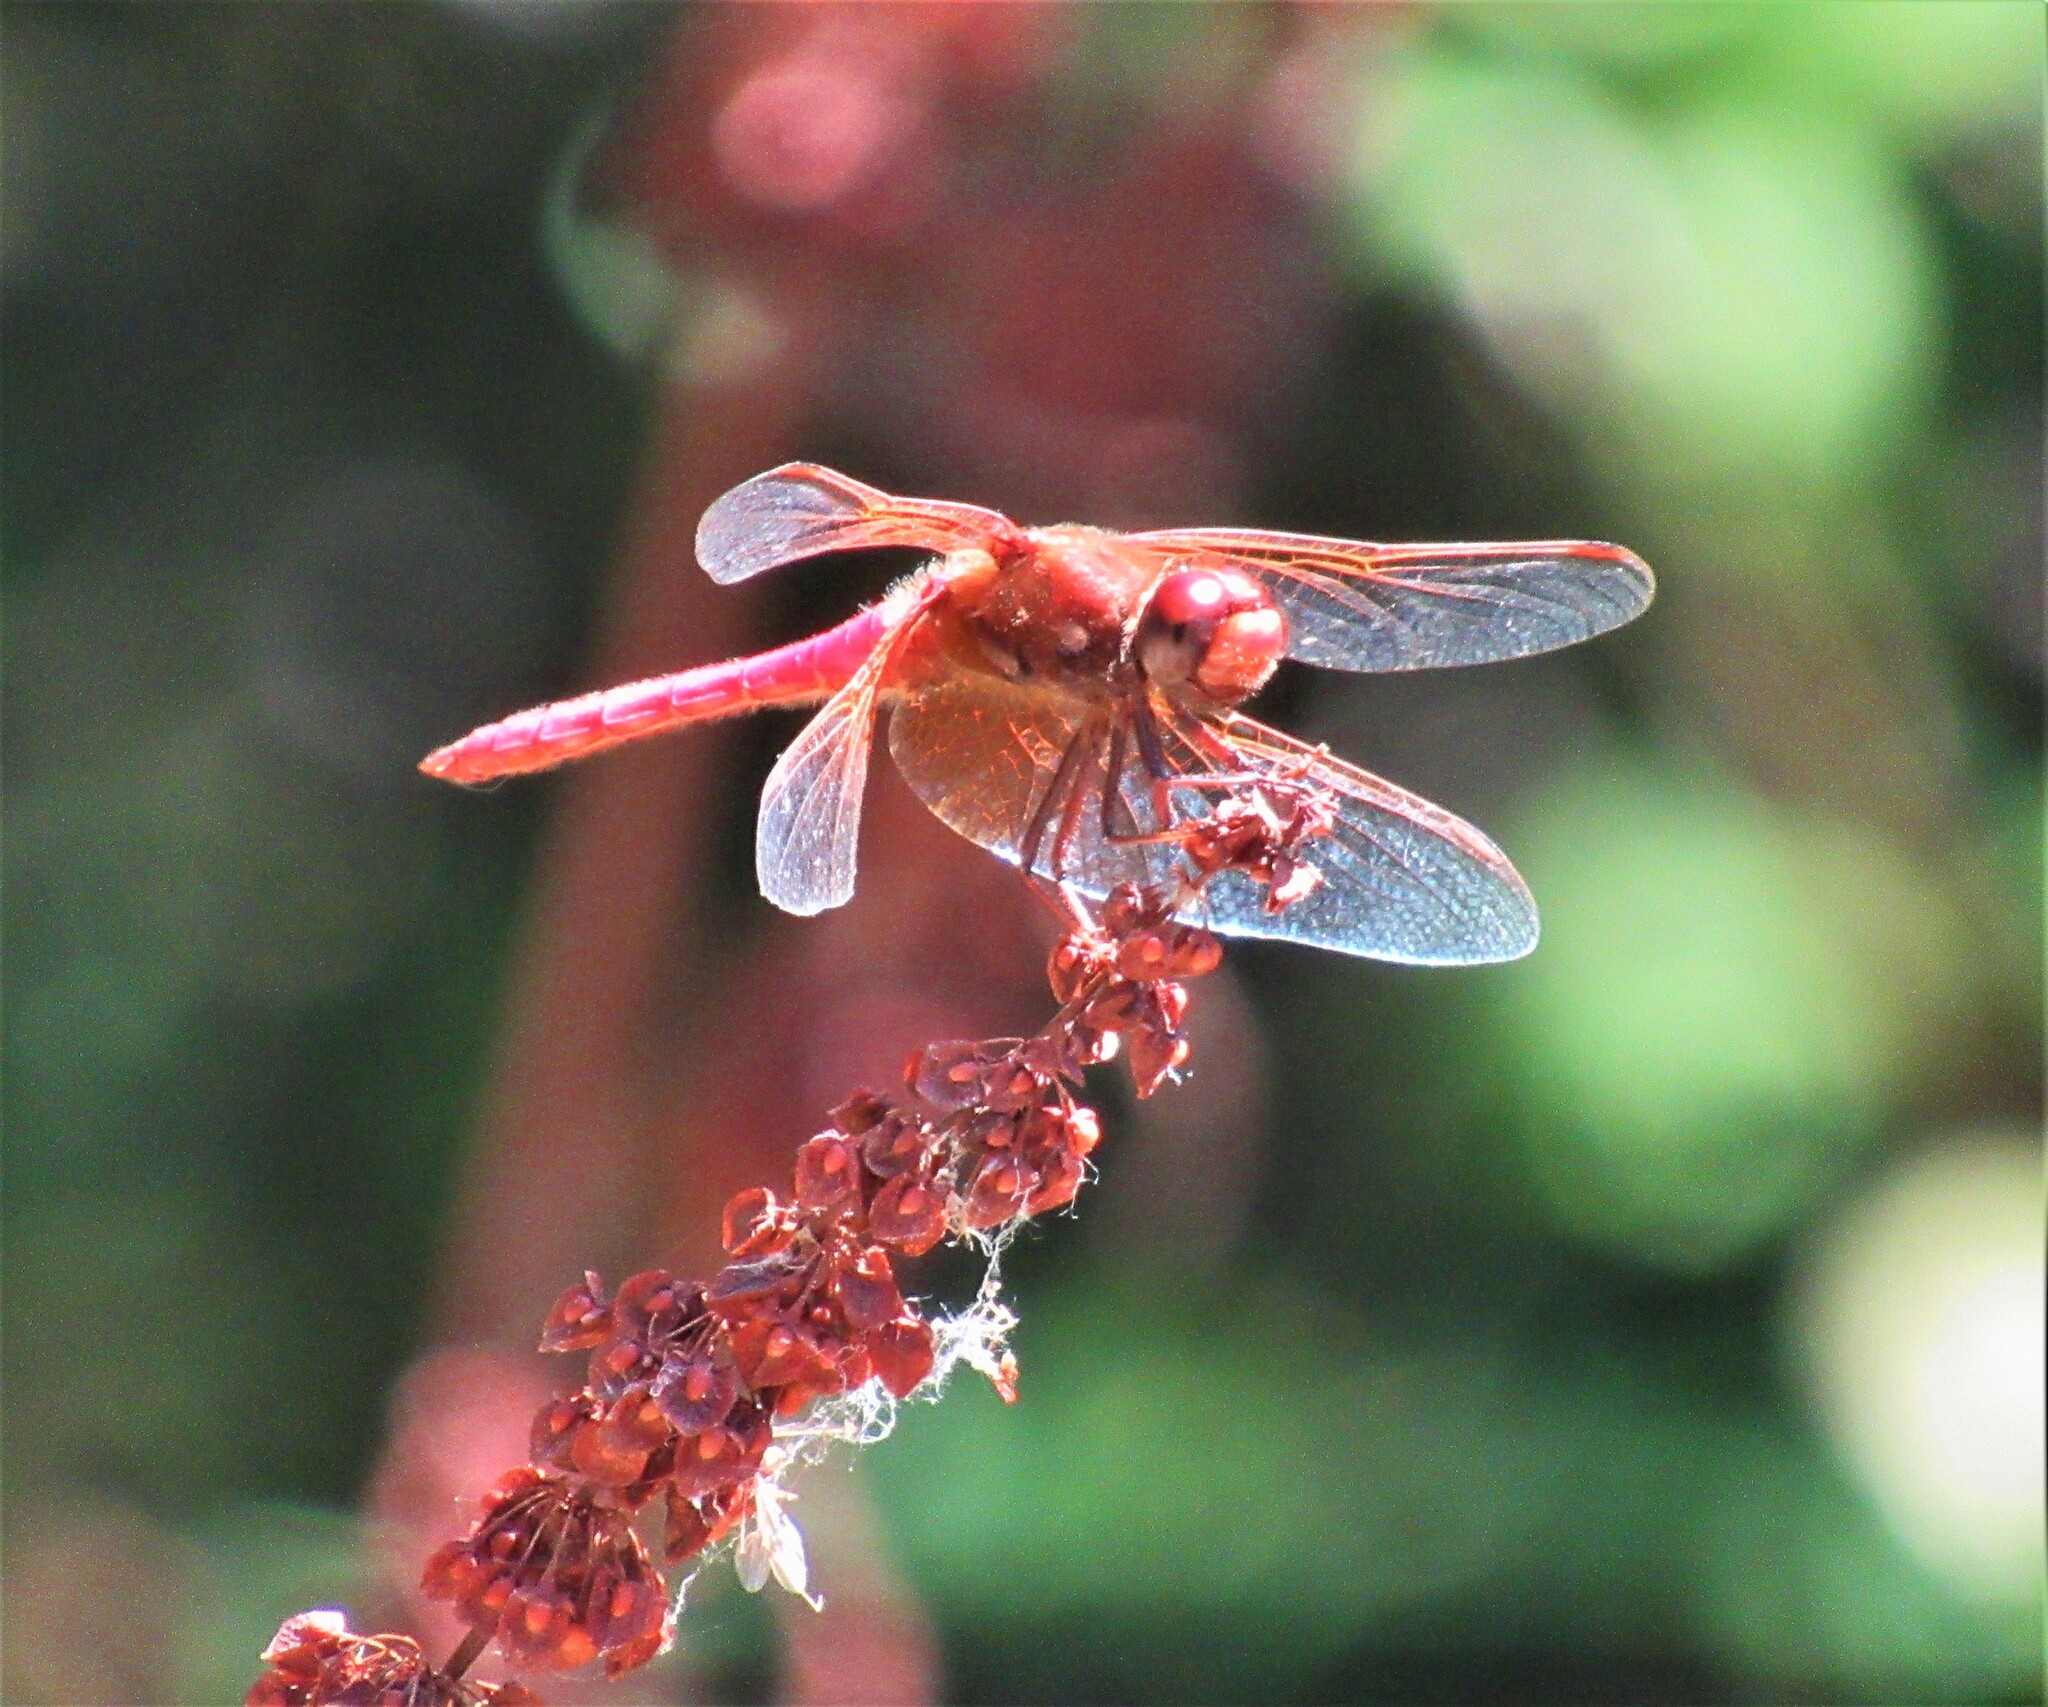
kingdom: Animalia
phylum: Arthropoda
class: Insecta
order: Odonata
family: Libellulidae
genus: Sympetrum
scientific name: Sympetrum illotum
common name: Cardinal meadowhawk
